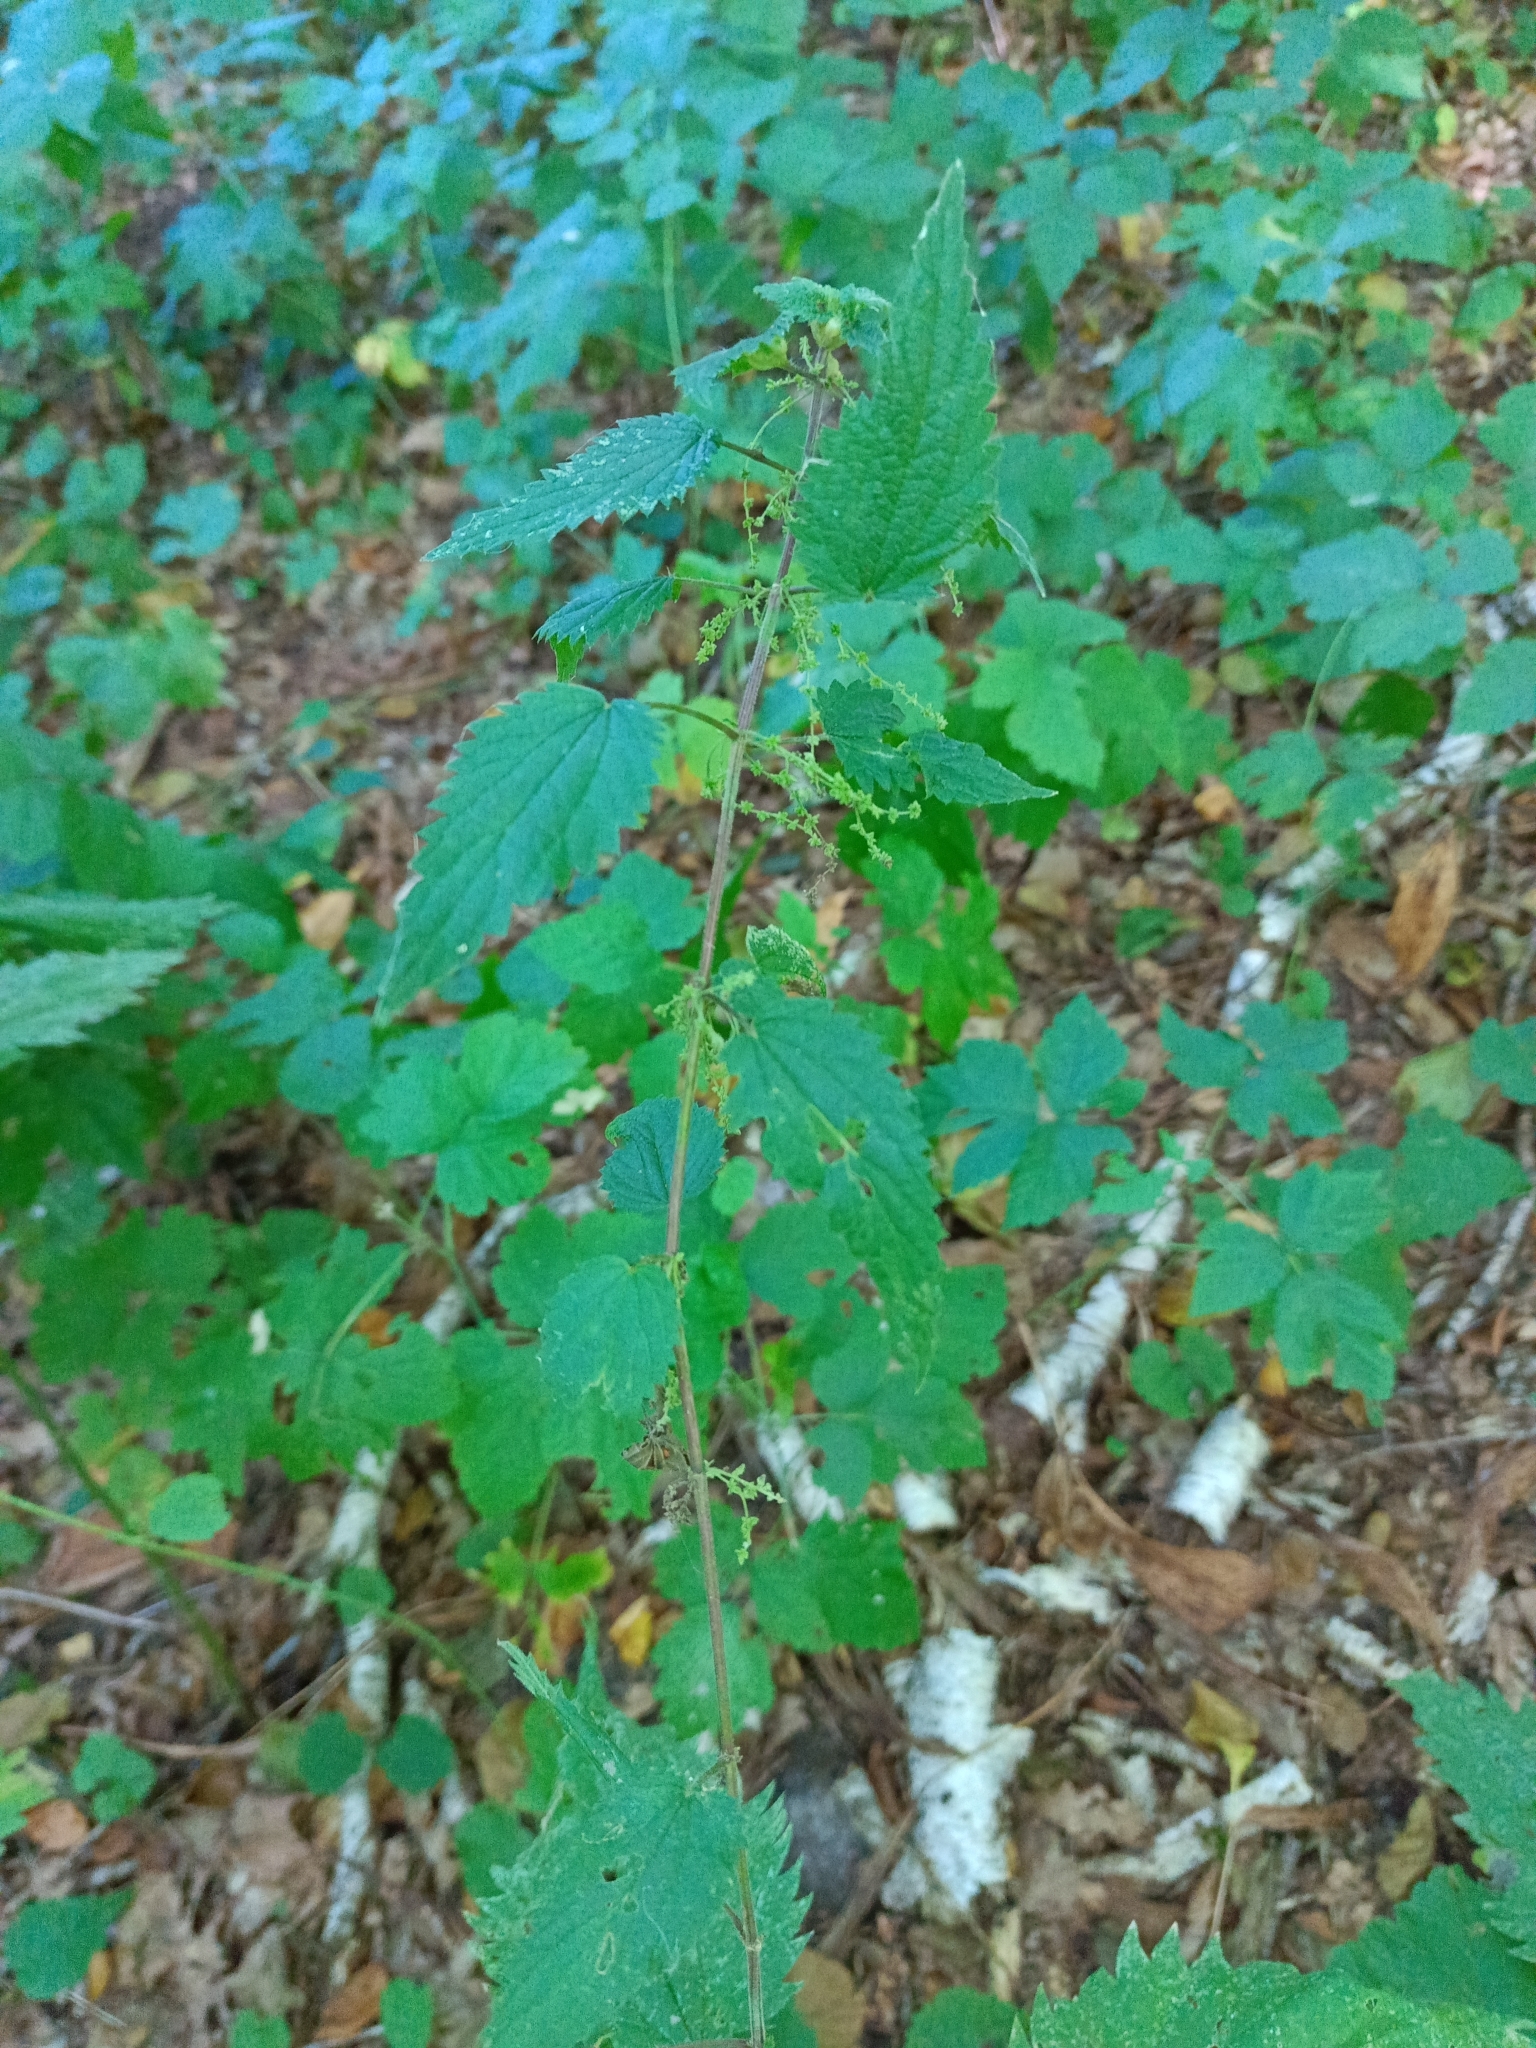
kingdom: Plantae
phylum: Tracheophyta
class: Magnoliopsida
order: Rosales
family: Urticaceae
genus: Urtica
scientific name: Urtica dioica
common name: Common nettle
